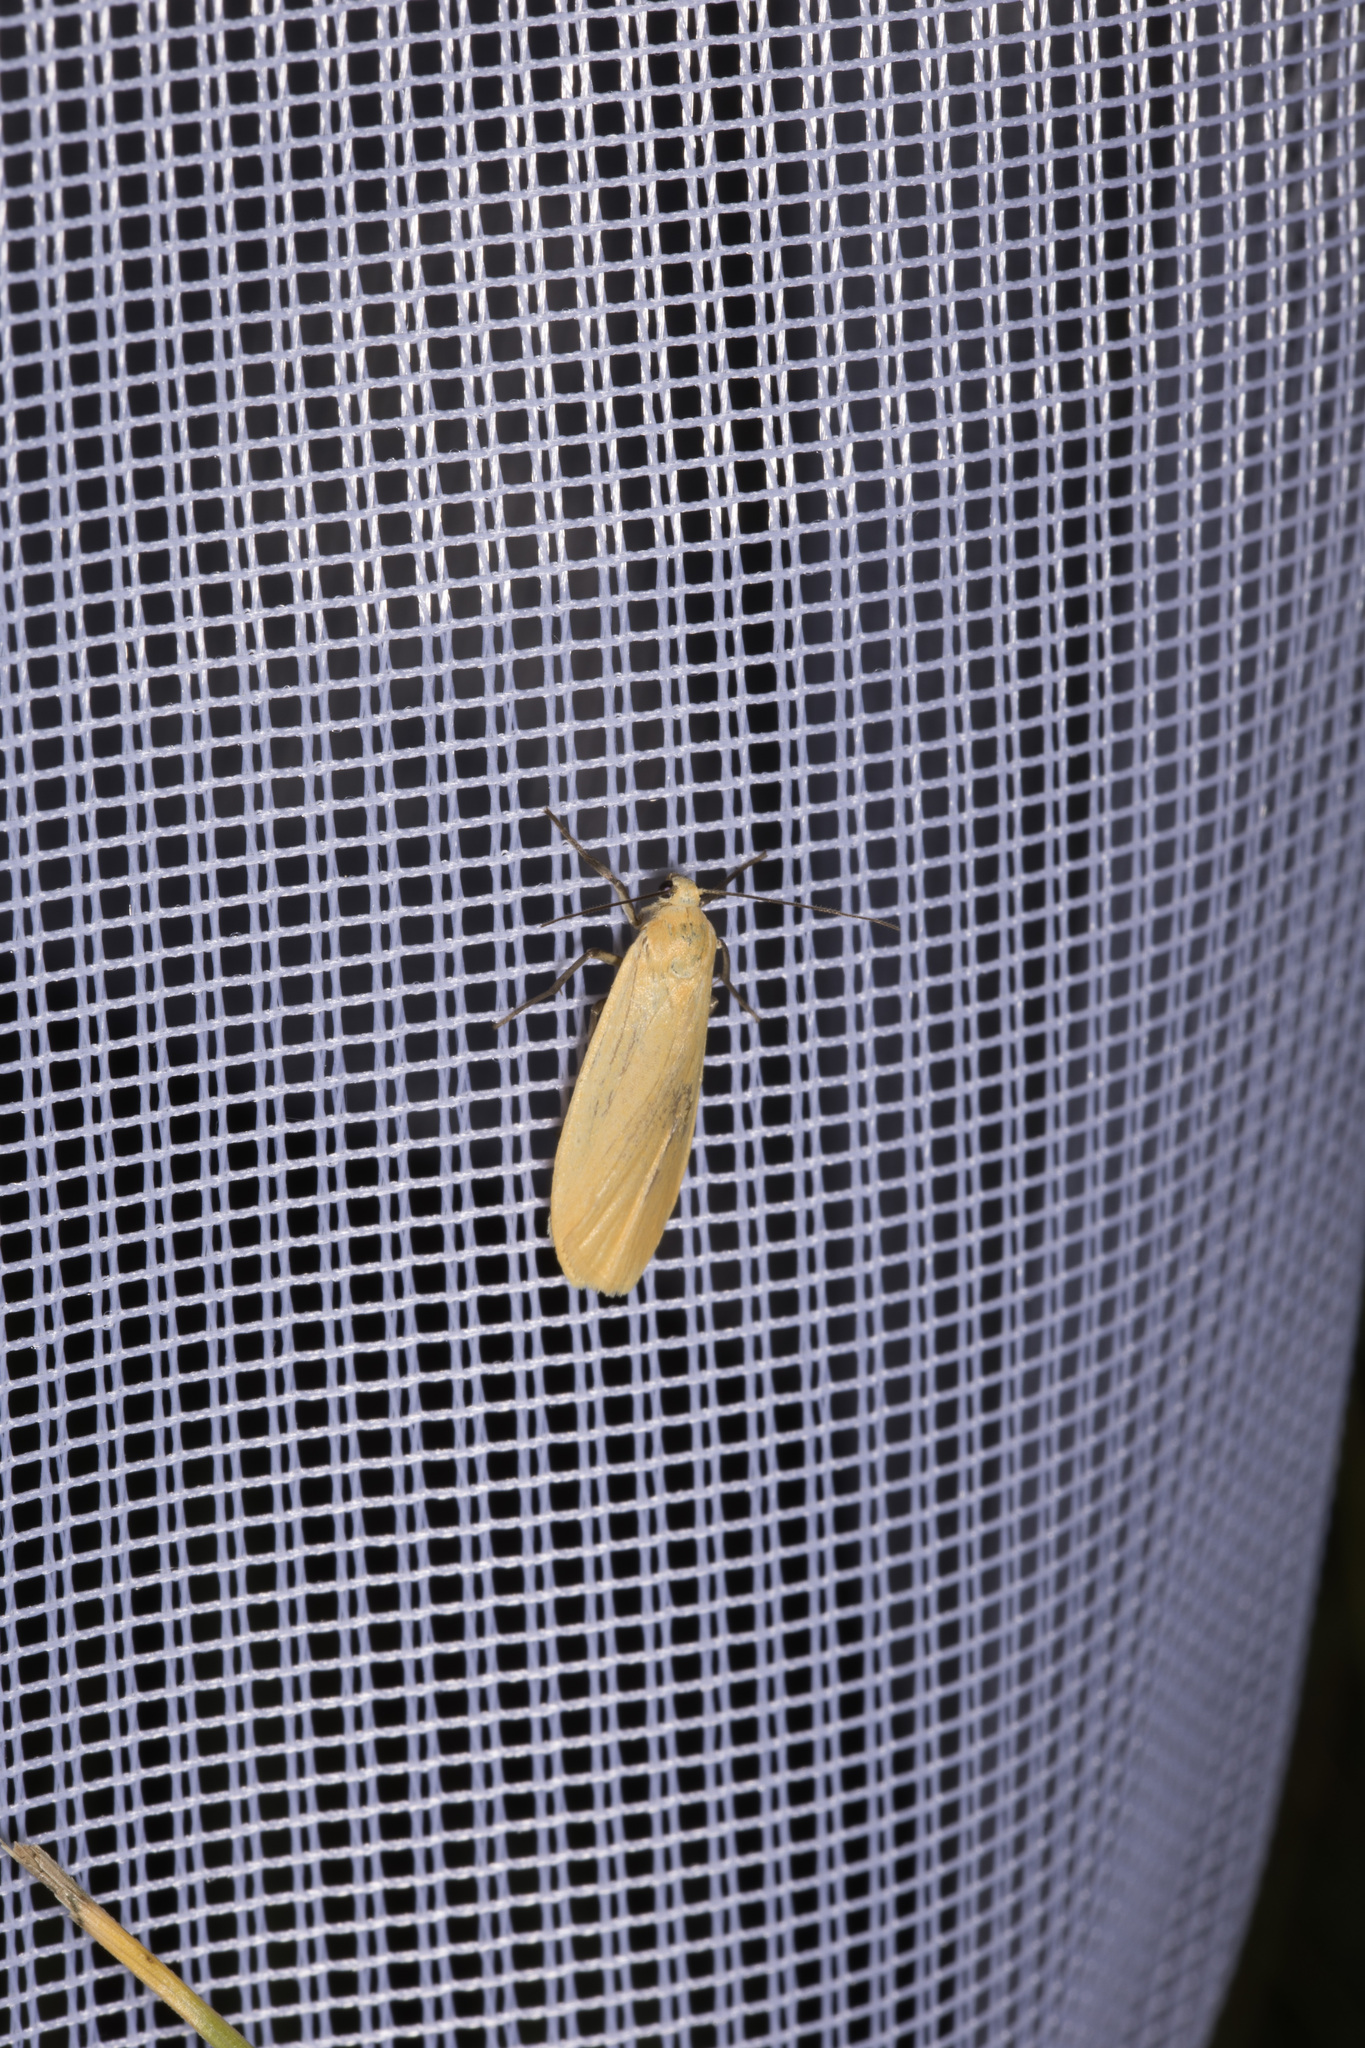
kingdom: Animalia
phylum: Arthropoda
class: Insecta
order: Lepidoptera
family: Erebidae
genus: Wittia
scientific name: Wittia sororcula
